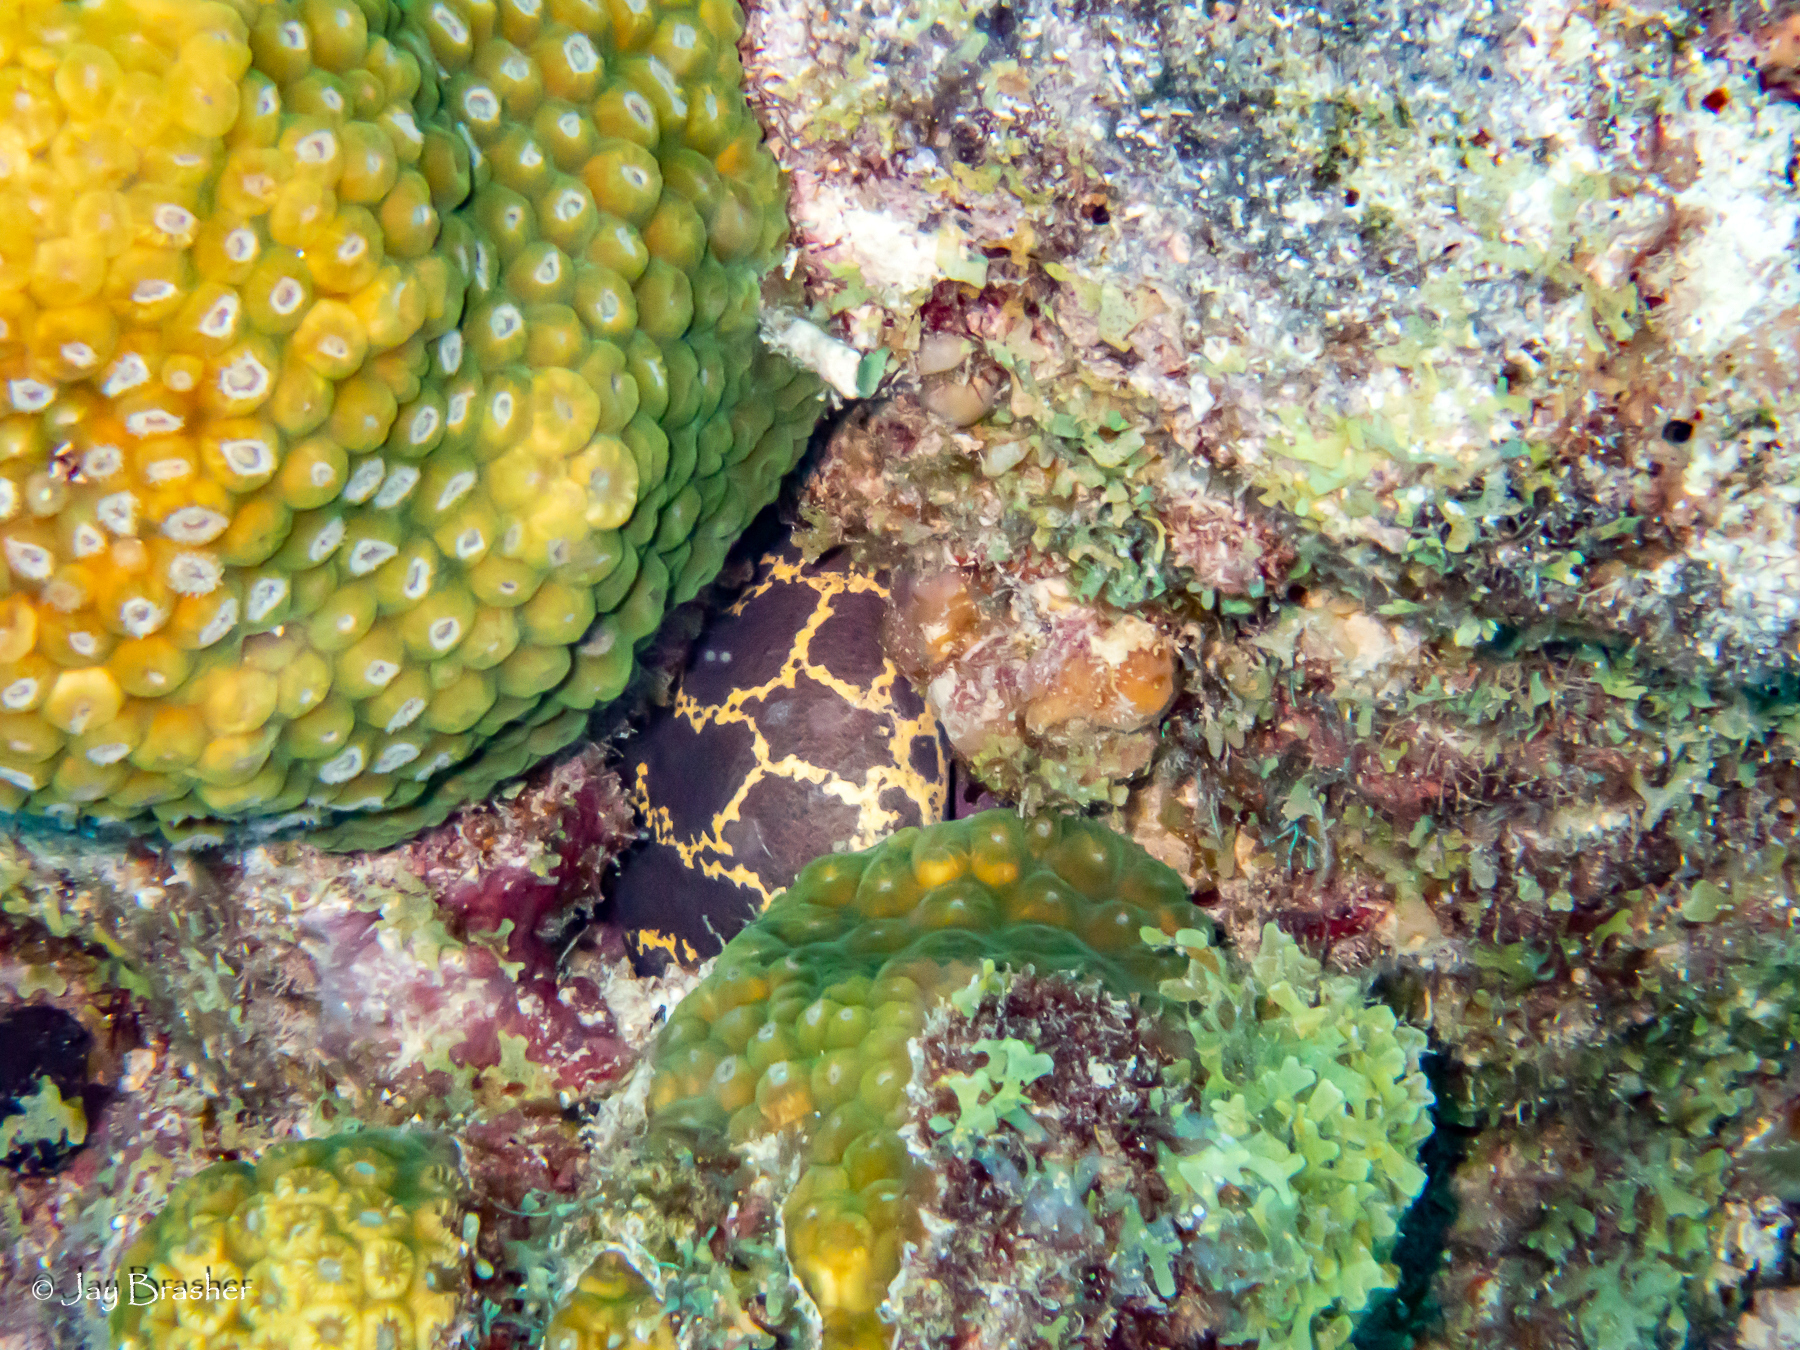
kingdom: Animalia
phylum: Chordata
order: Anguilliformes
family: Muraenidae
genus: Echidna
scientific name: Echidna catenata
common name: Chain moray
